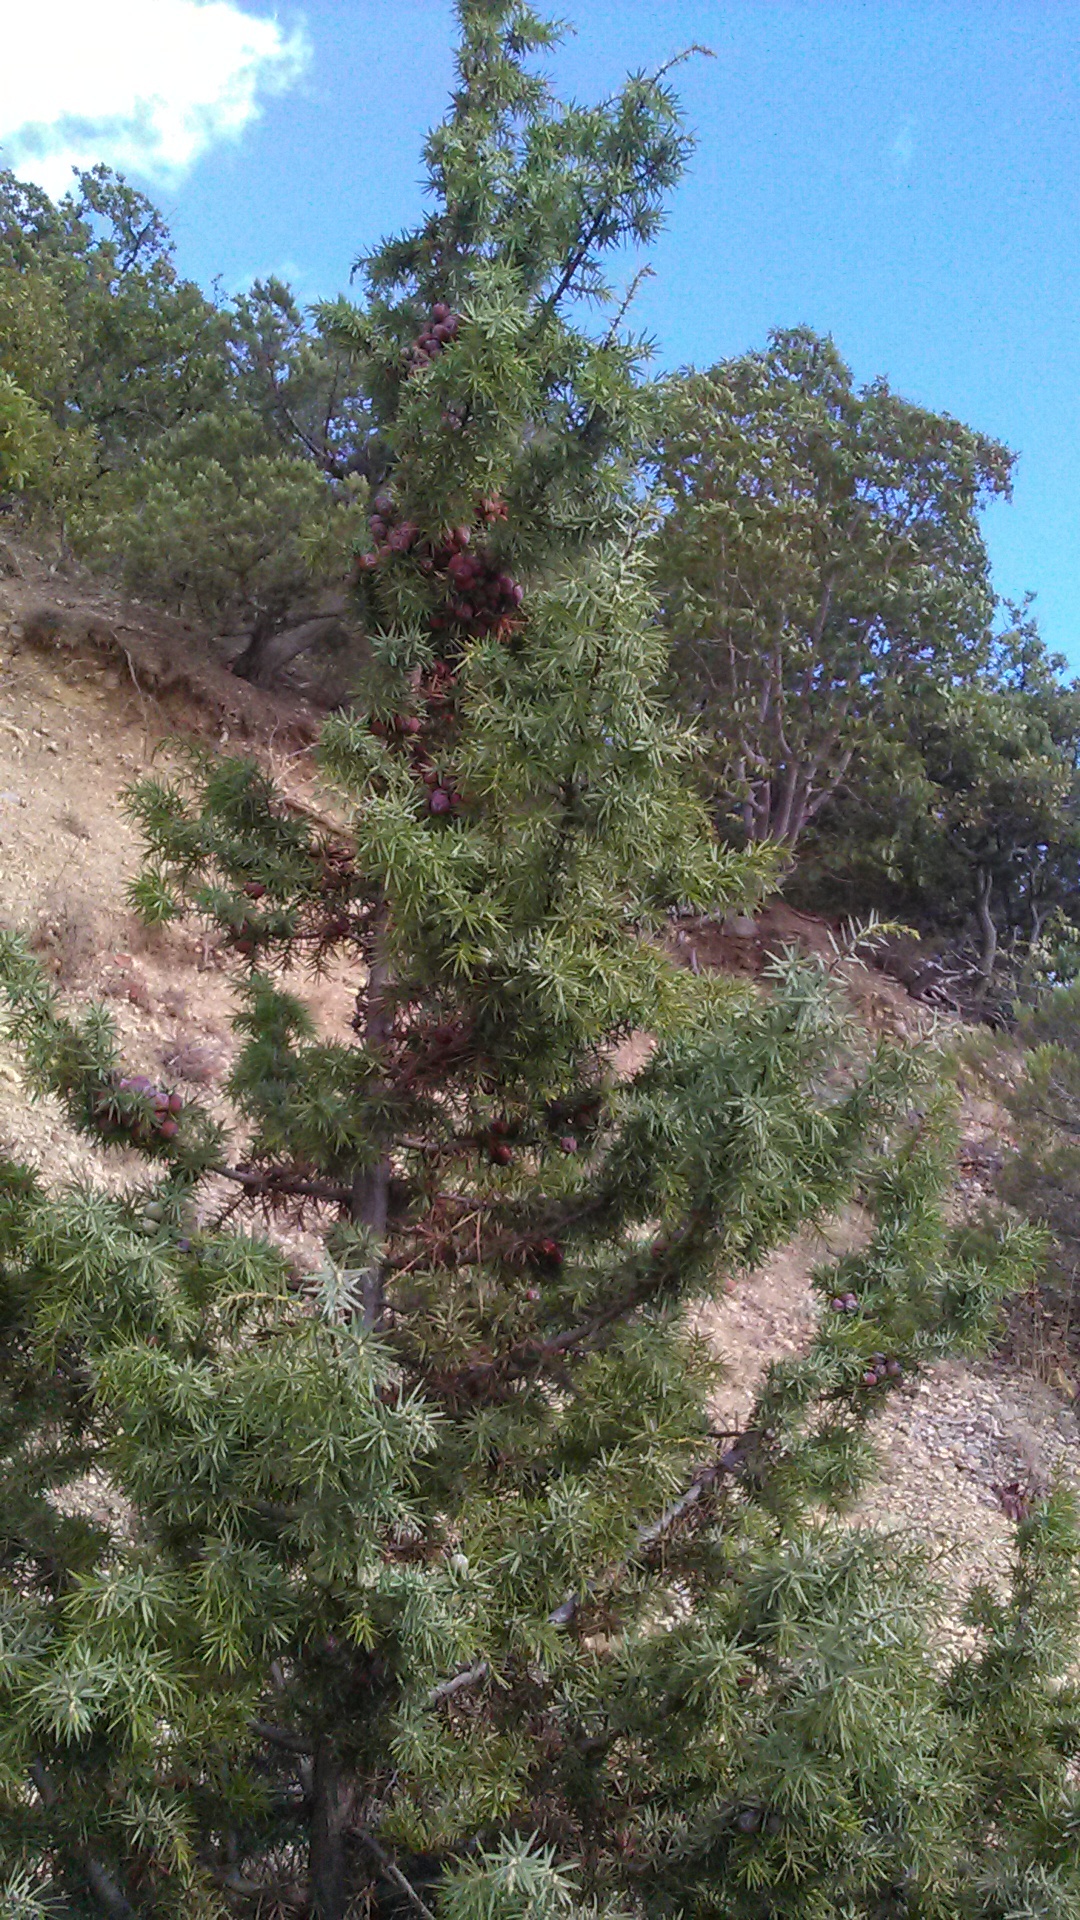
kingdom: Plantae
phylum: Tracheophyta
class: Pinopsida
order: Pinales
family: Cupressaceae
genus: Juniperus
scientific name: Juniperus oxycedrus
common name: Prickly juniper
